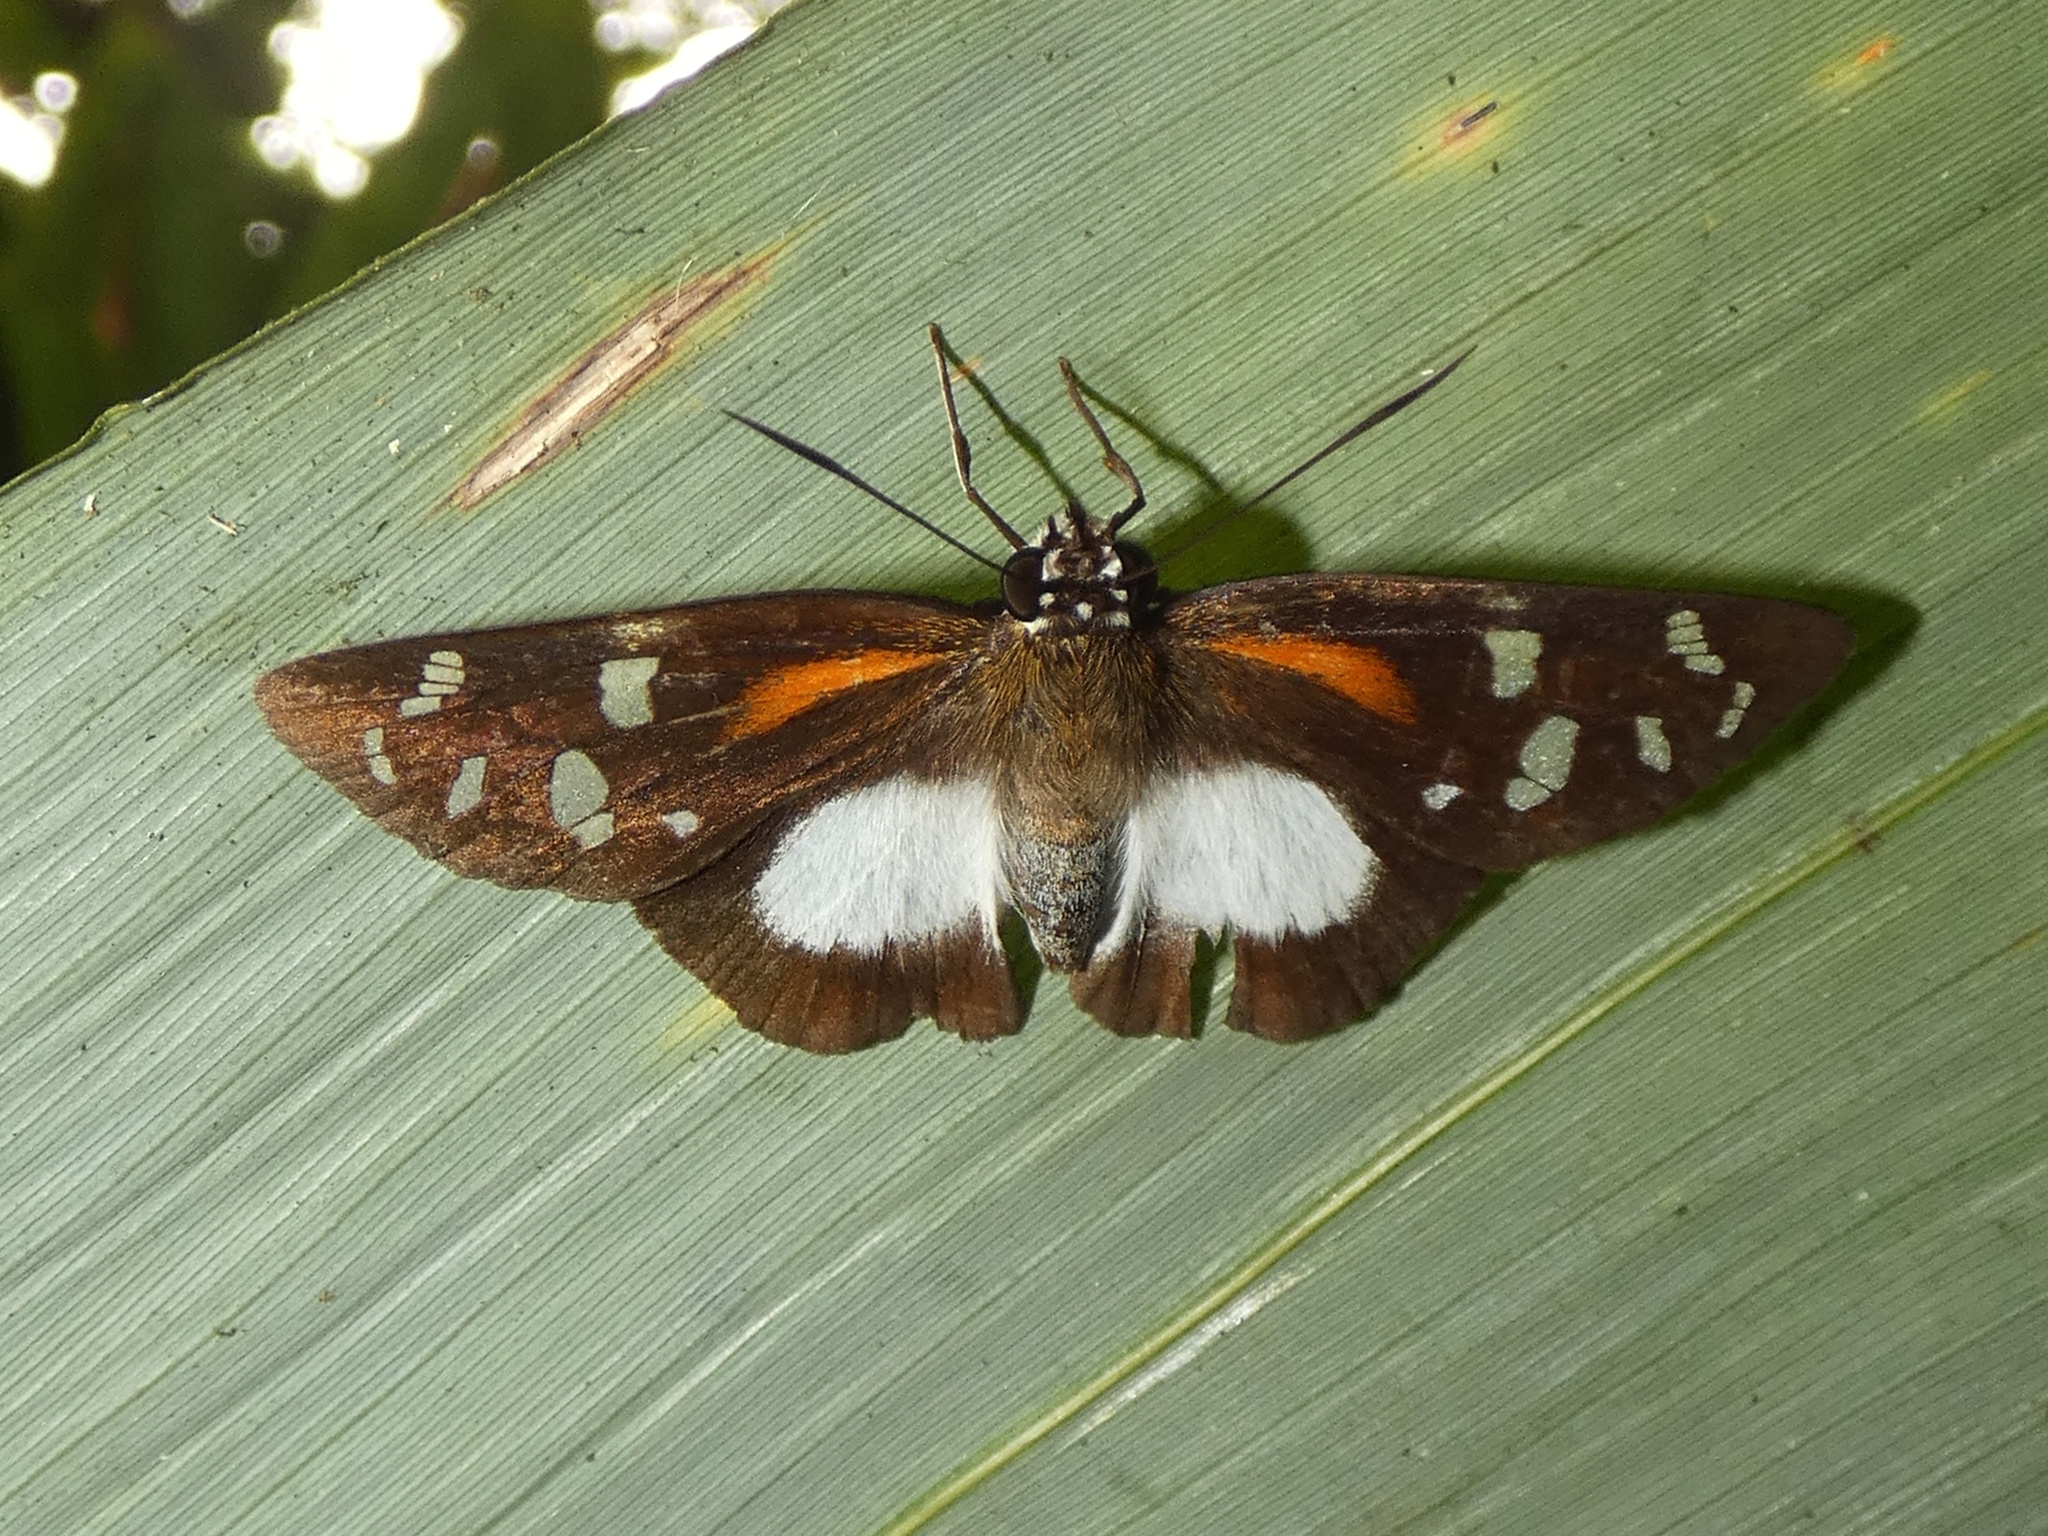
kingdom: Animalia
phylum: Arthropoda
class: Insecta
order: Lepidoptera
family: Hesperiidae
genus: Entheus
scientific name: Entheus gentius
